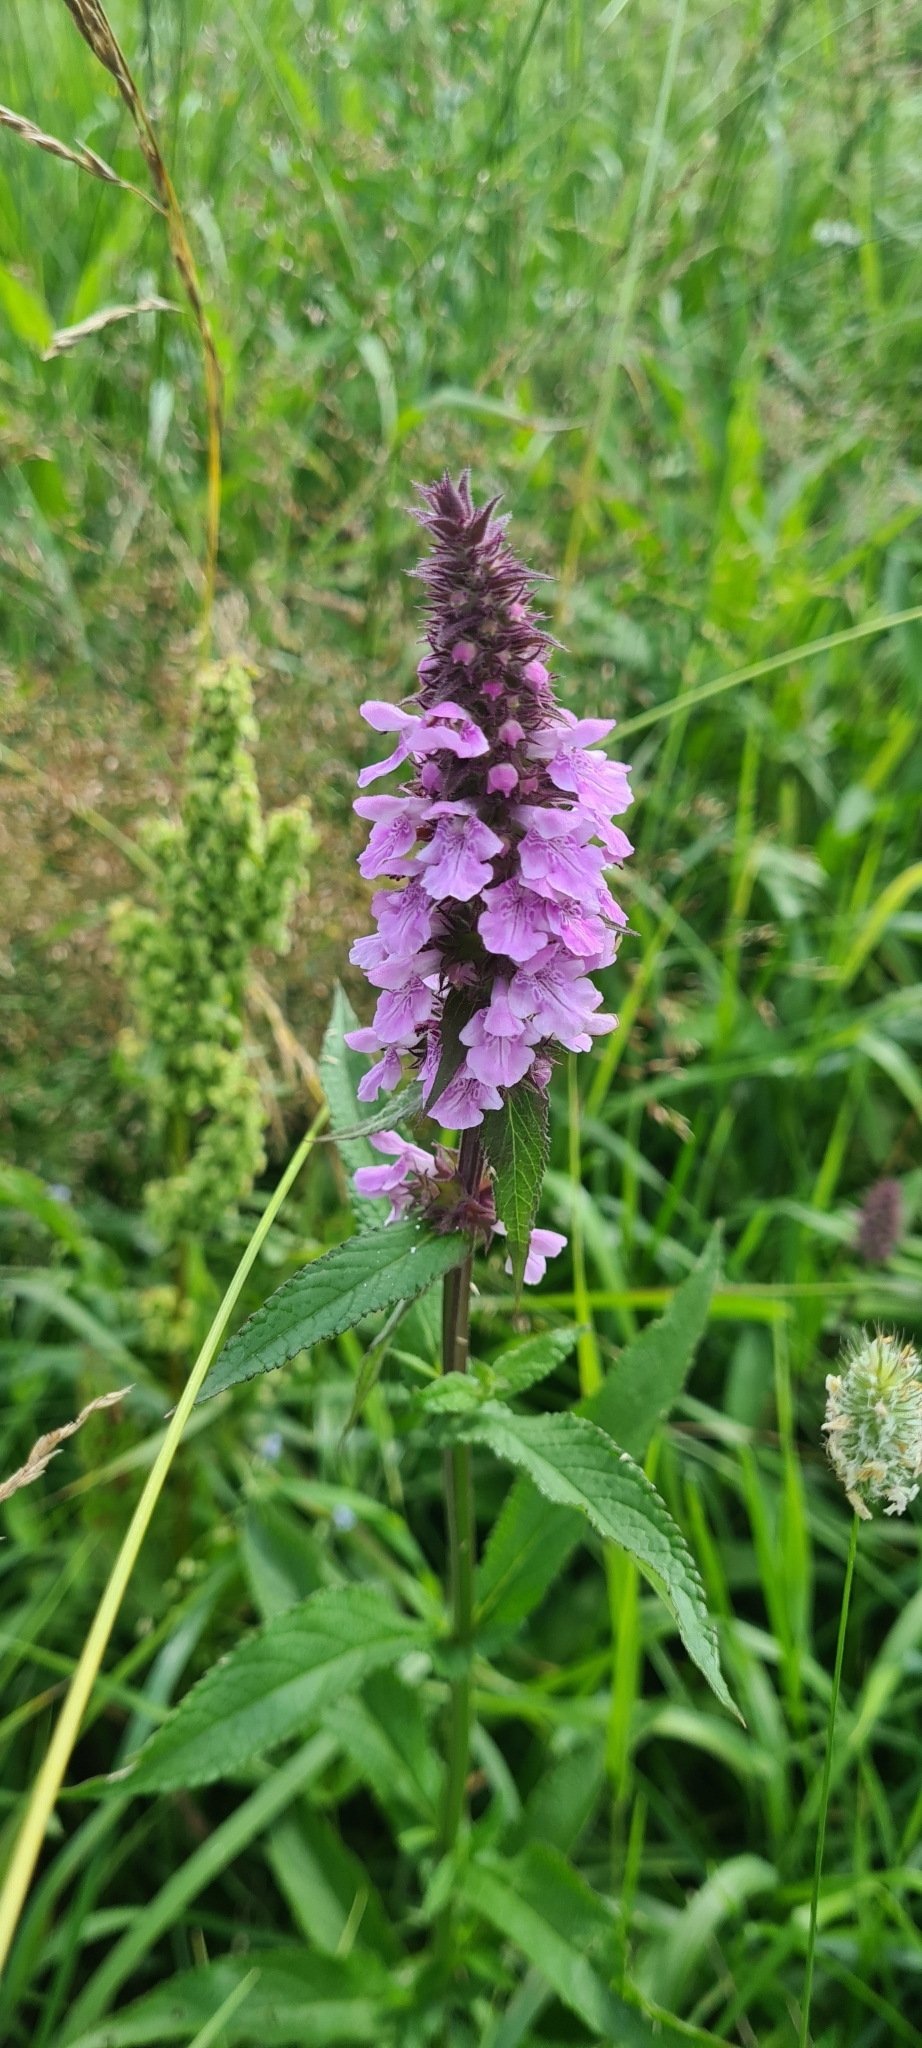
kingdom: Plantae
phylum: Tracheophyta
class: Magnoliopsida
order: Lamiales
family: Lamiaceae
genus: Stachys
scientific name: Stachys palustris
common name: Marsh woundwort
